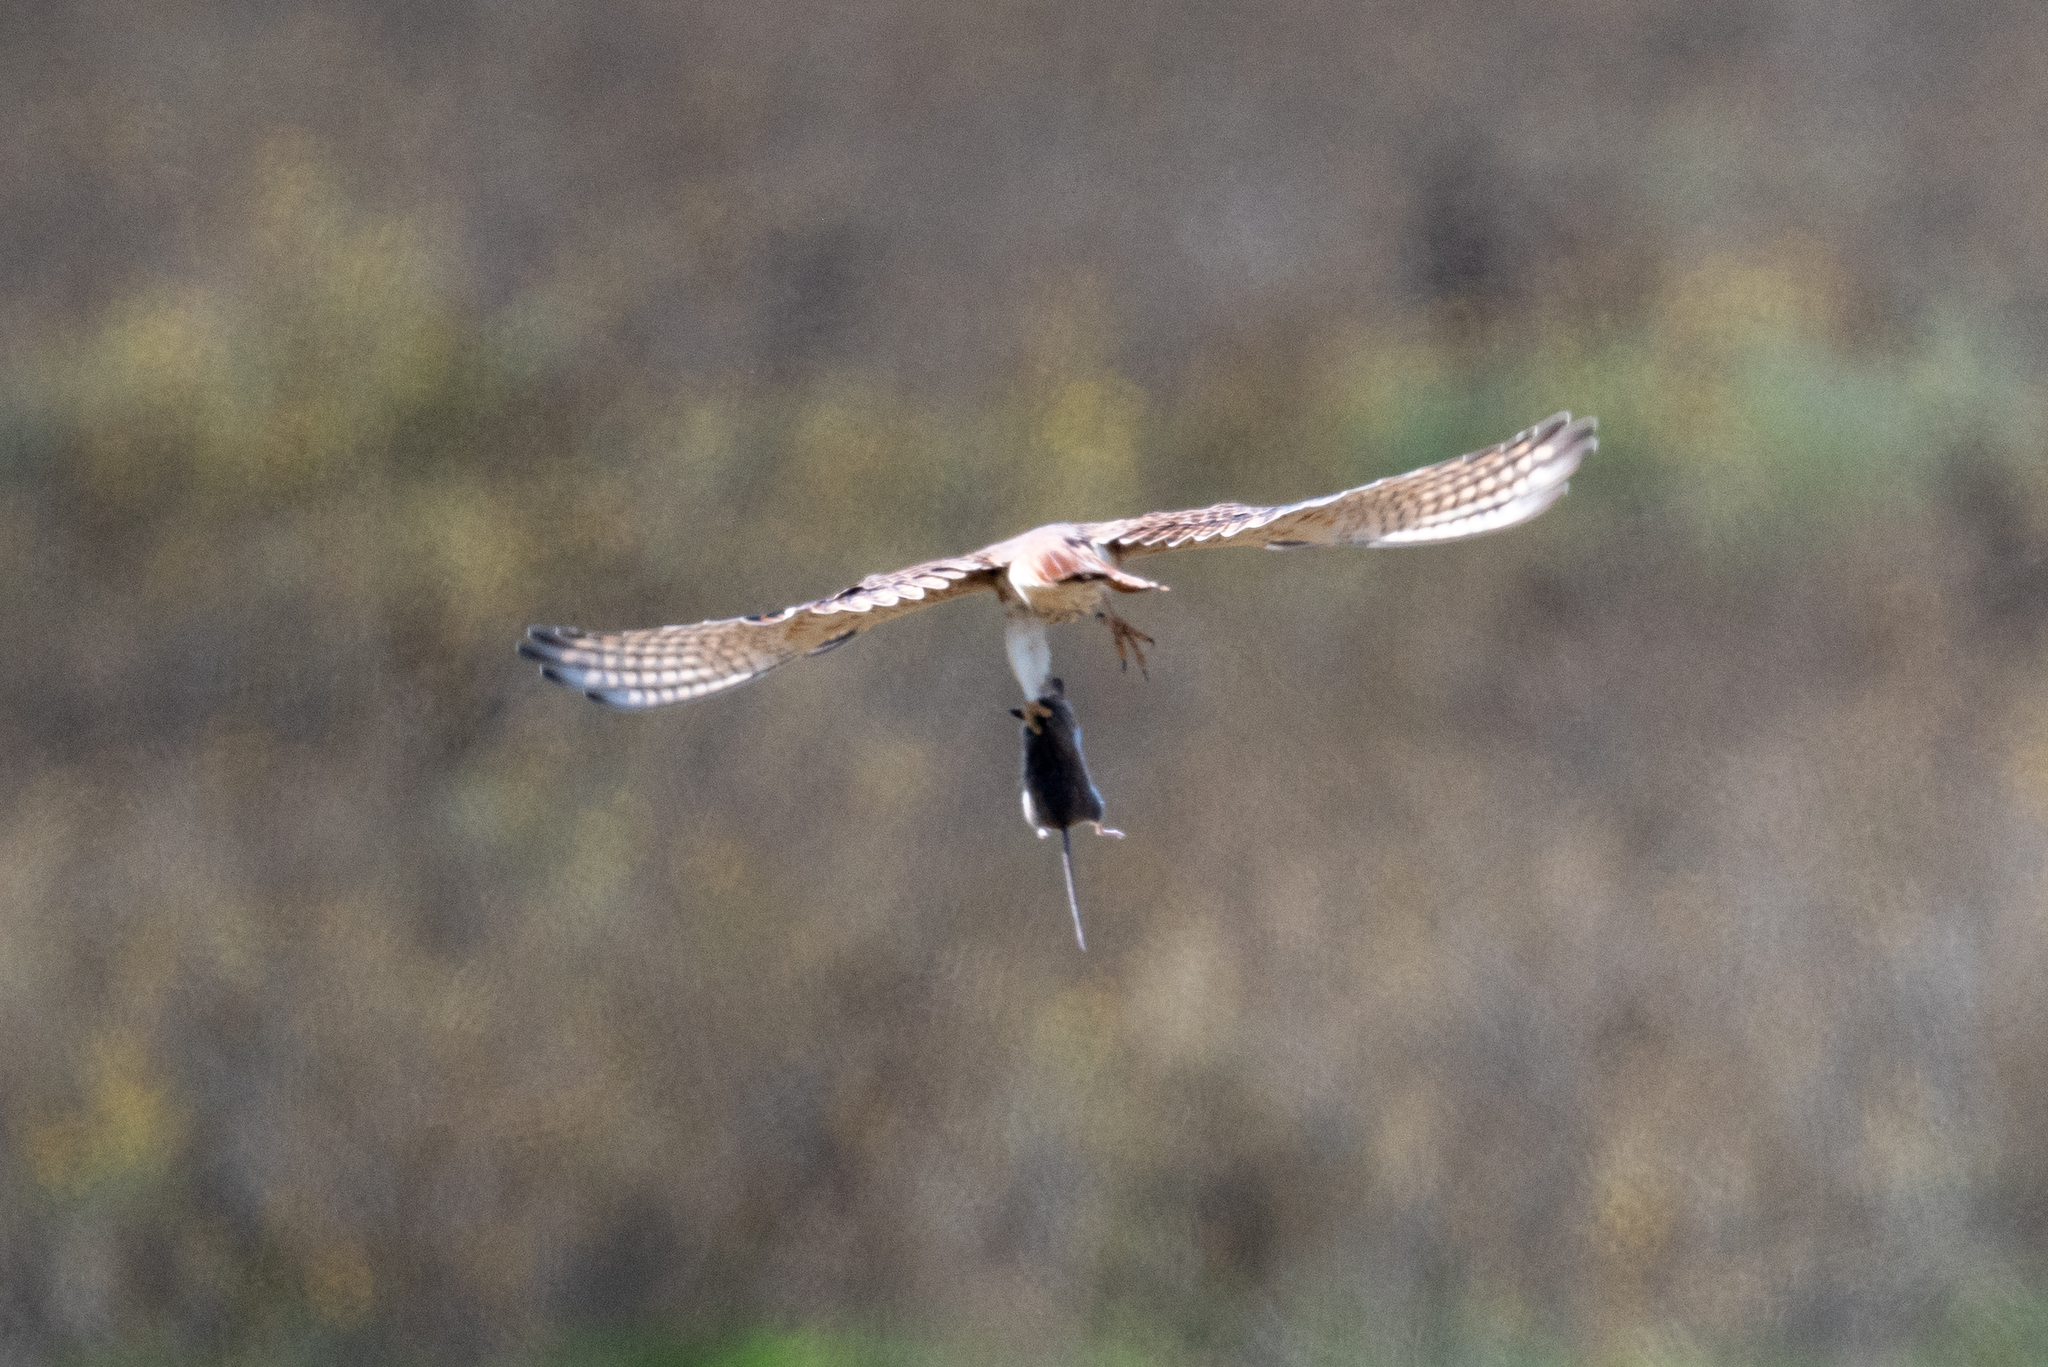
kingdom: Animalia
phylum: Chordata
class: Aves
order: Falconiformes
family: Falconidae
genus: Falco
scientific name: Falco sparverius
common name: American kestrel
